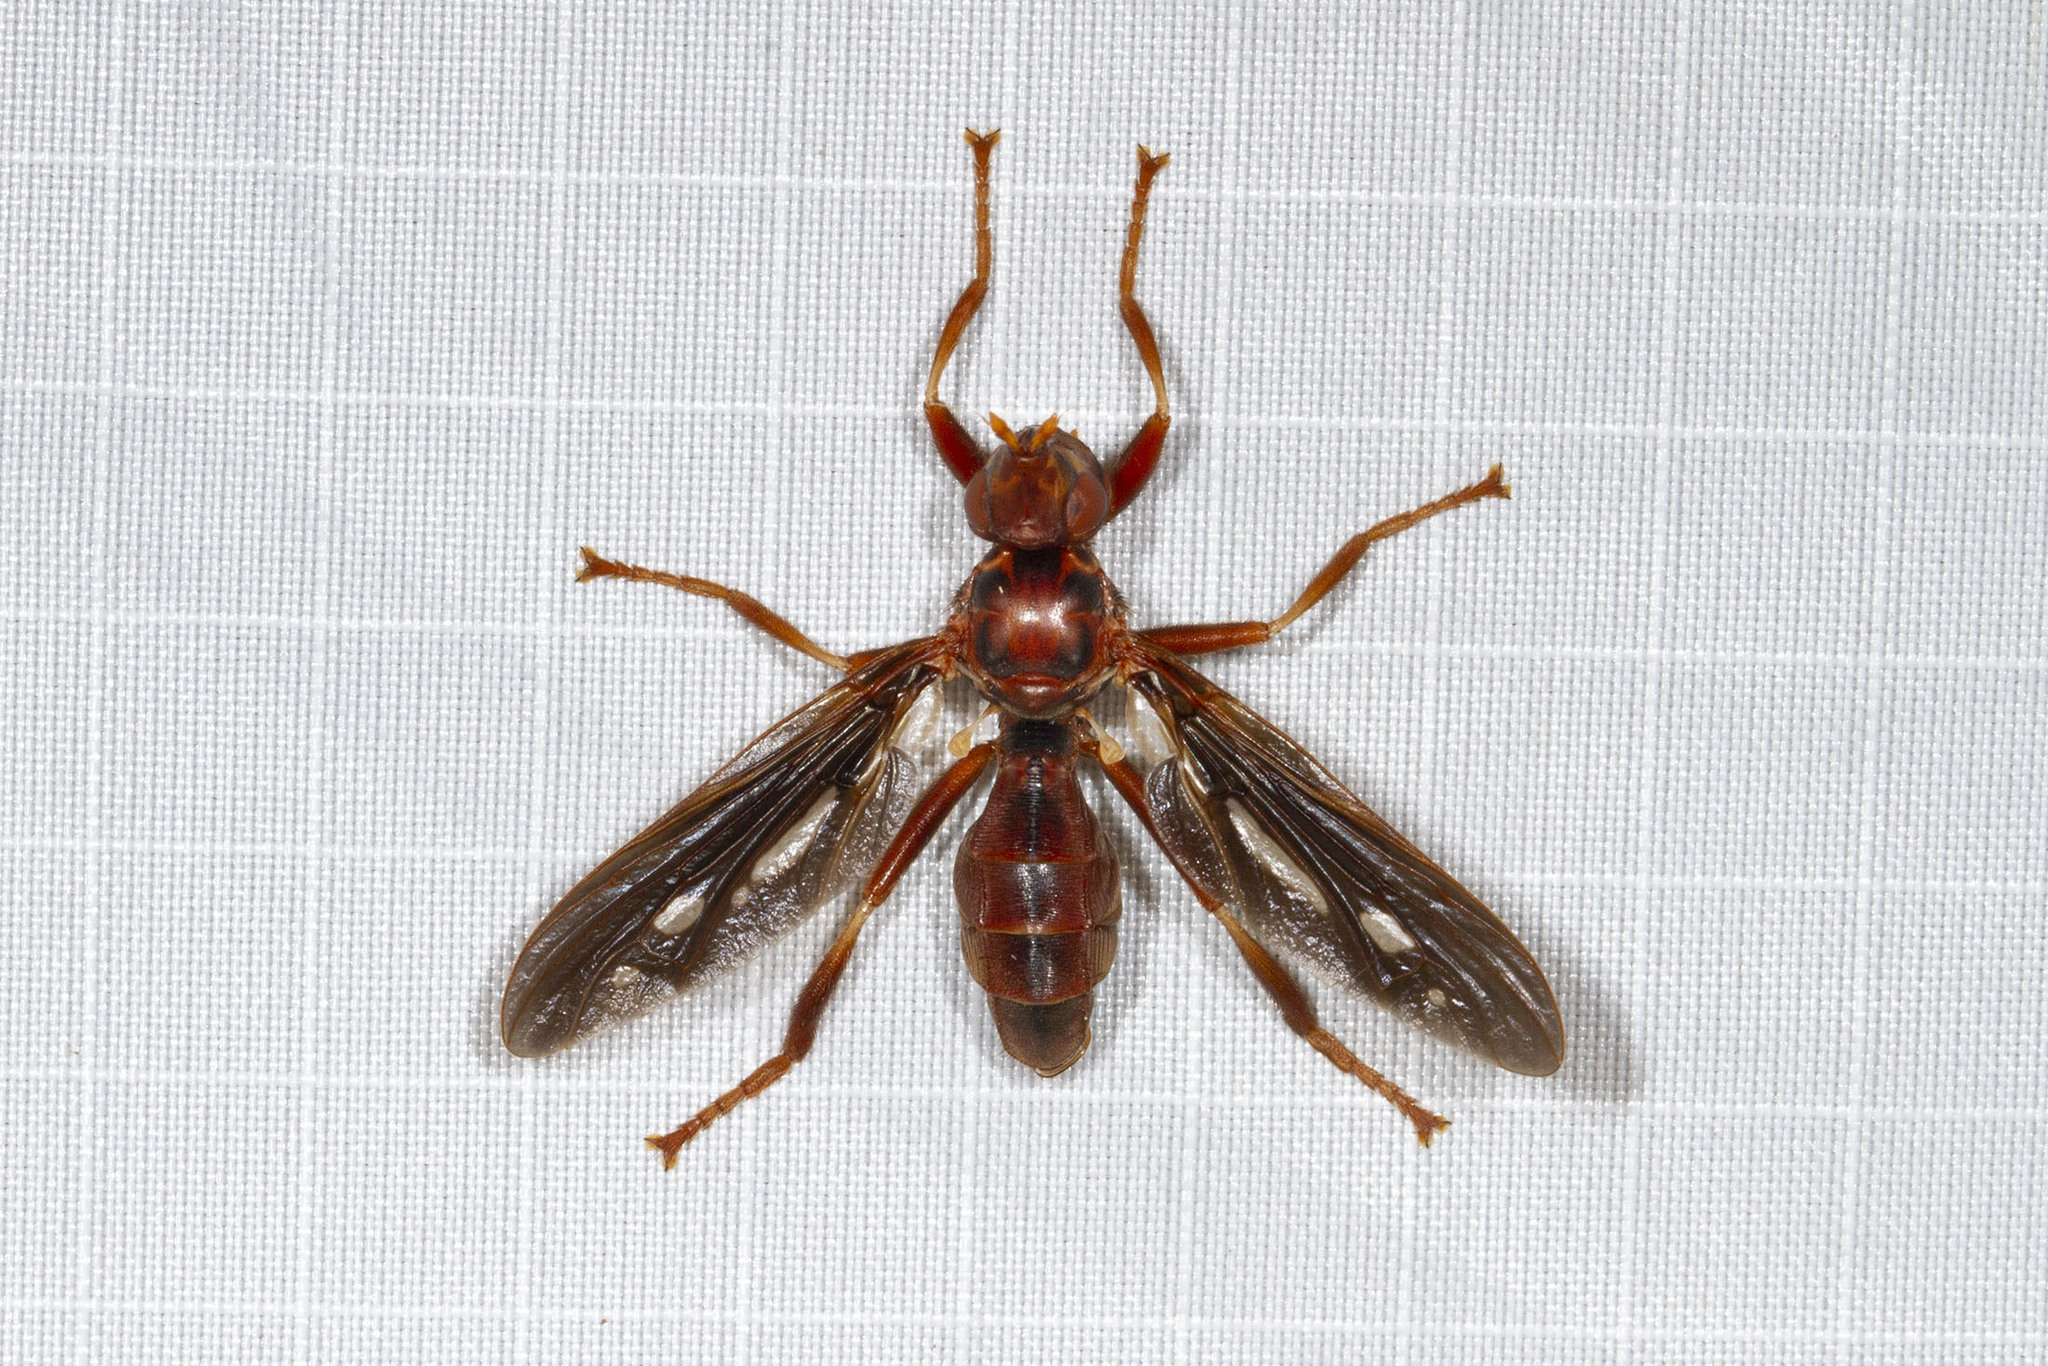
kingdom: Animalia
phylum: Arthropoda
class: Insecta
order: Diptera
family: Pyrgotidae
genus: Pyrgota
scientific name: Pyrgota fenestrata
